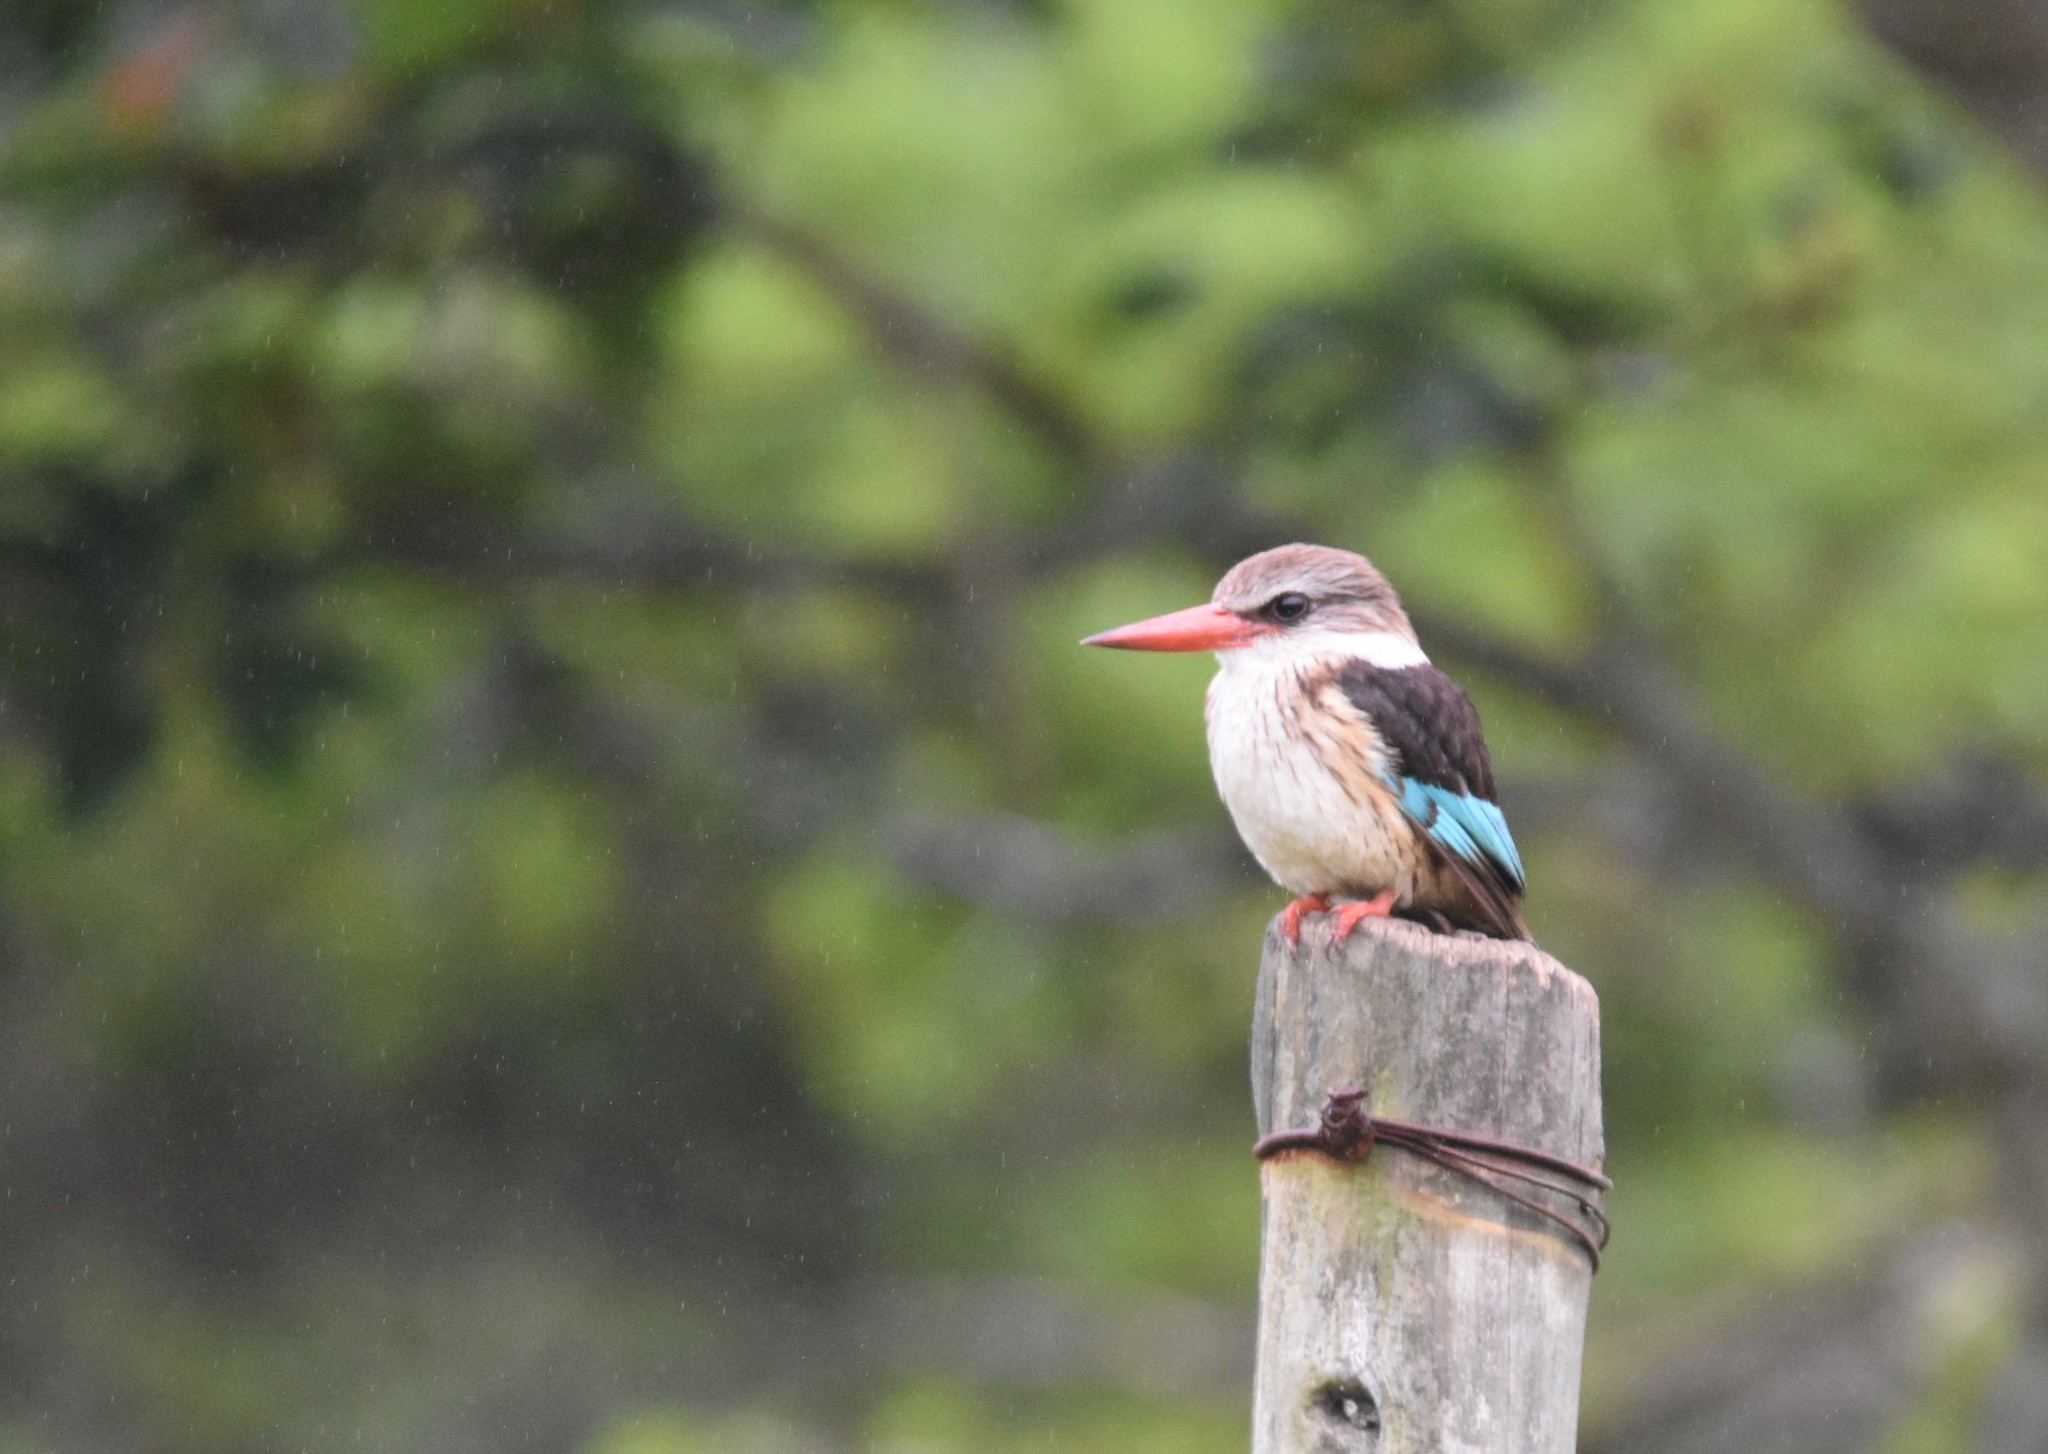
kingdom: Animalia
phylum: Chordata
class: Aves
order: Coraciiformes
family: Alcedinidae
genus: Halcyon
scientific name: Halcyon albiventris
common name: Brown-hooded kingfisher
